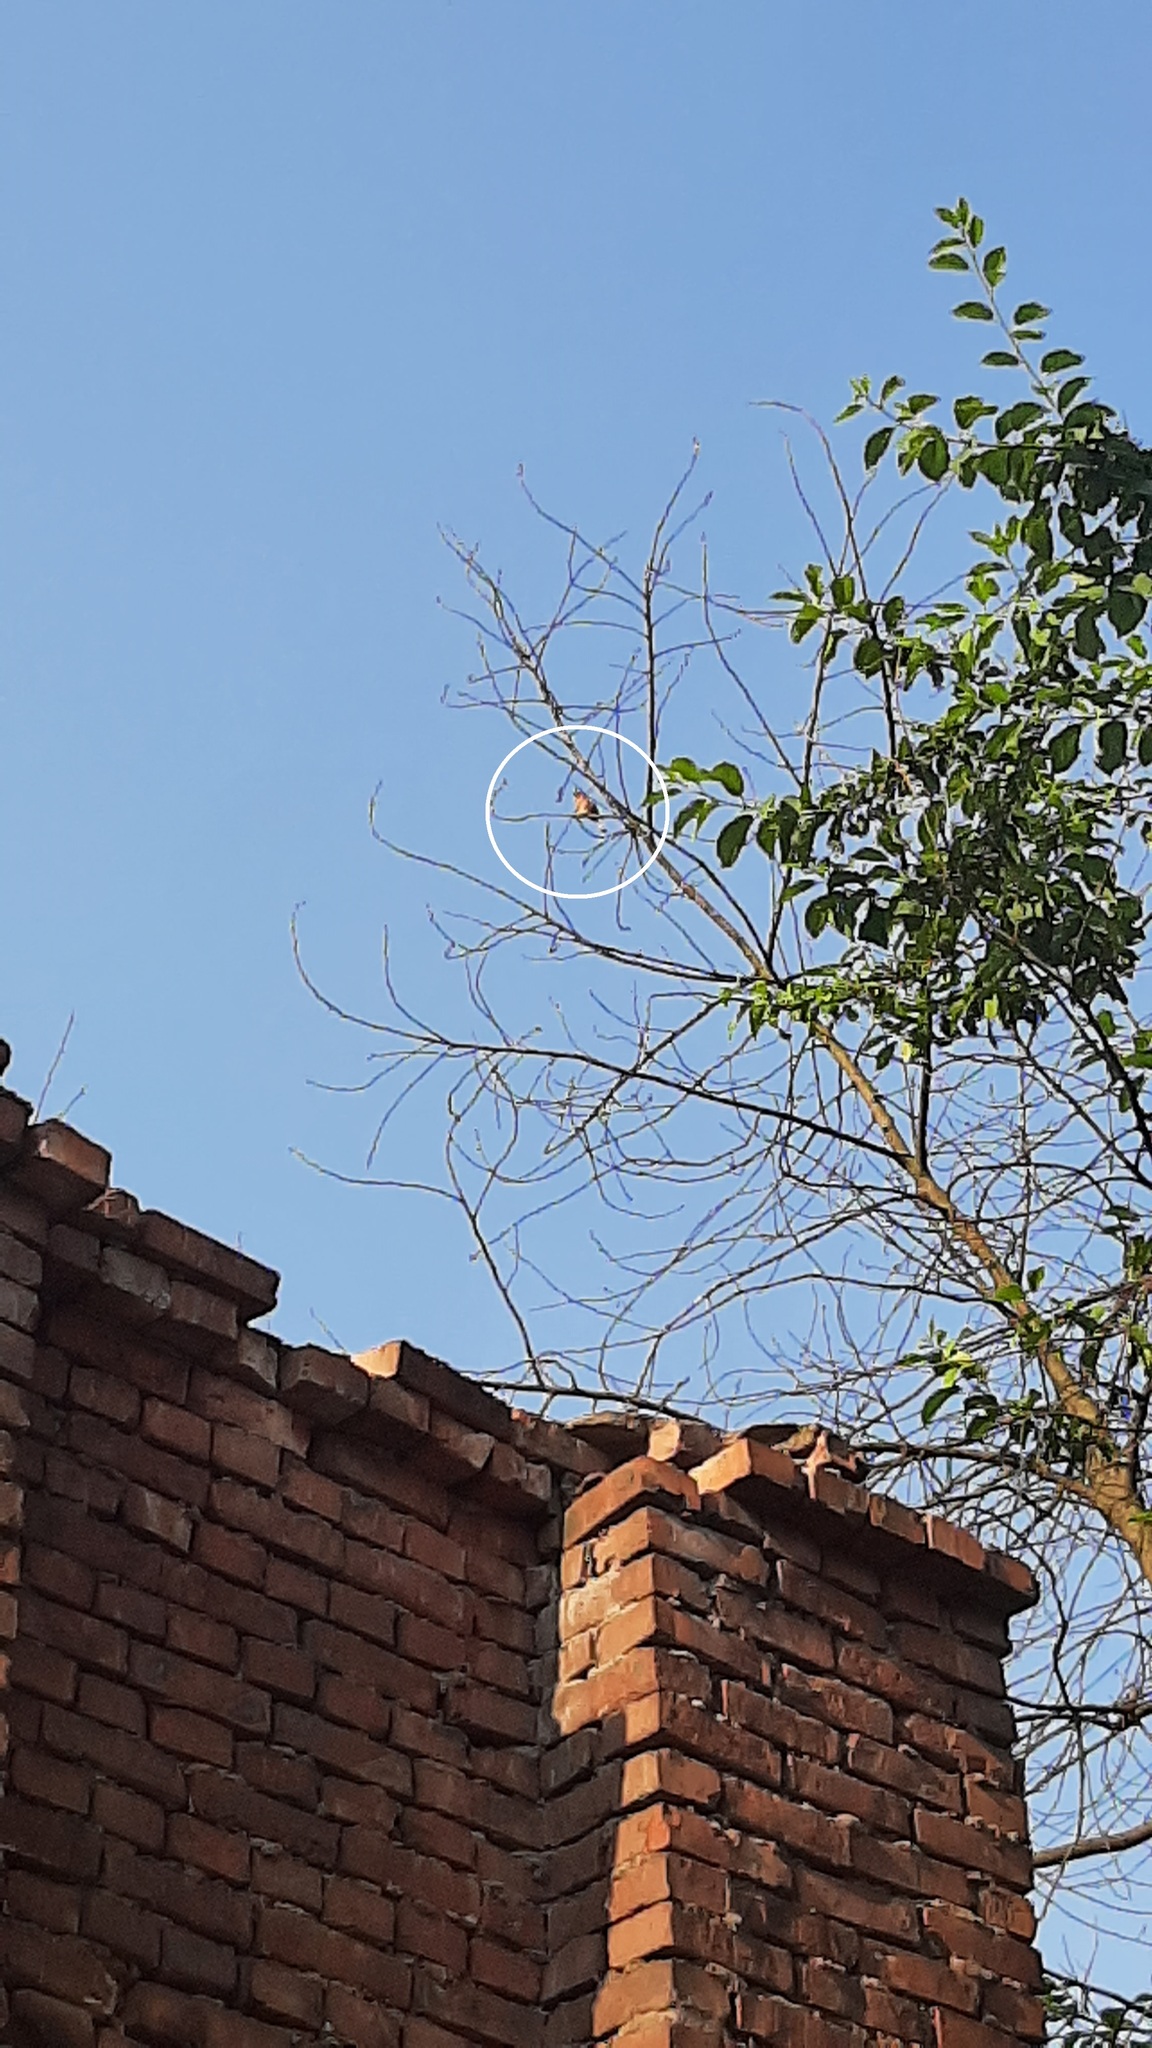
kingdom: Animalia
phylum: Chordata
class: Aves
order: Passeriformes
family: Fringillidae
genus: Fringilla
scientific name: Fringilla coelebs
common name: Common chaffinch
